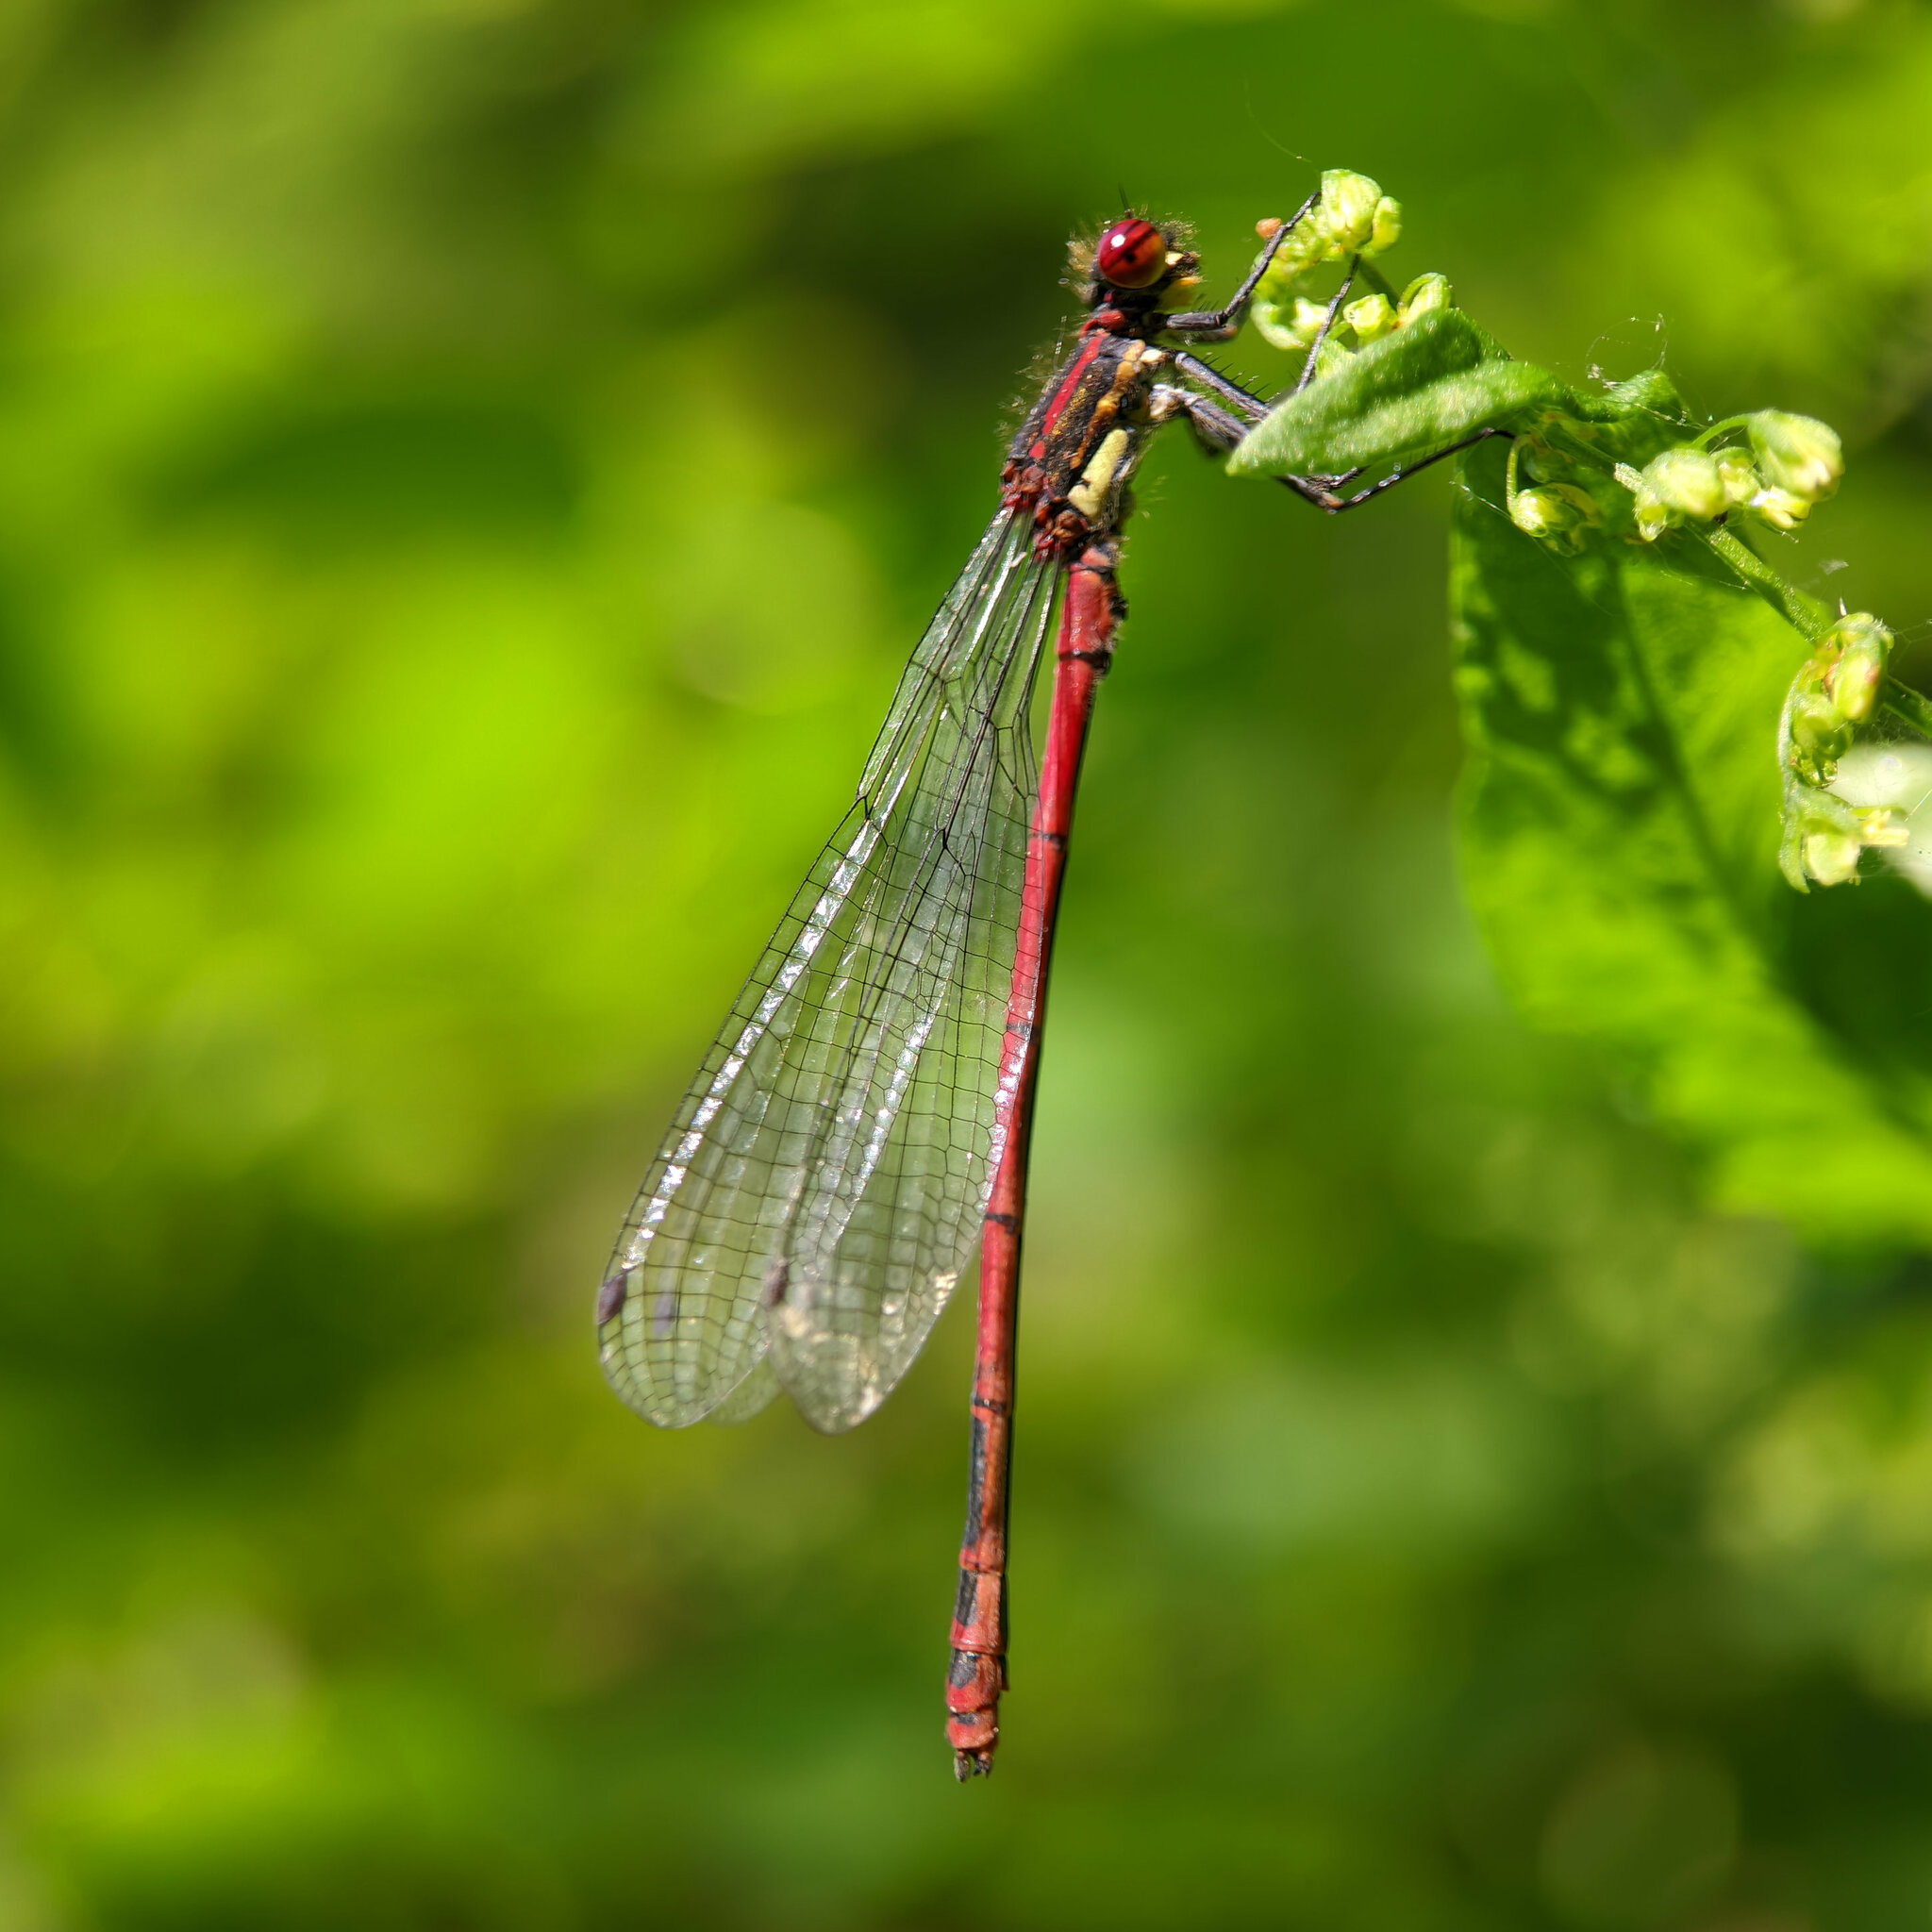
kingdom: Animalia
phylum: Arthropoda
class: Insecta
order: Odonata
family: Coenagrionidae
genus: Pyrrhosoma
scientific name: Pyrrhosoma nymphula
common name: Large red damsel
